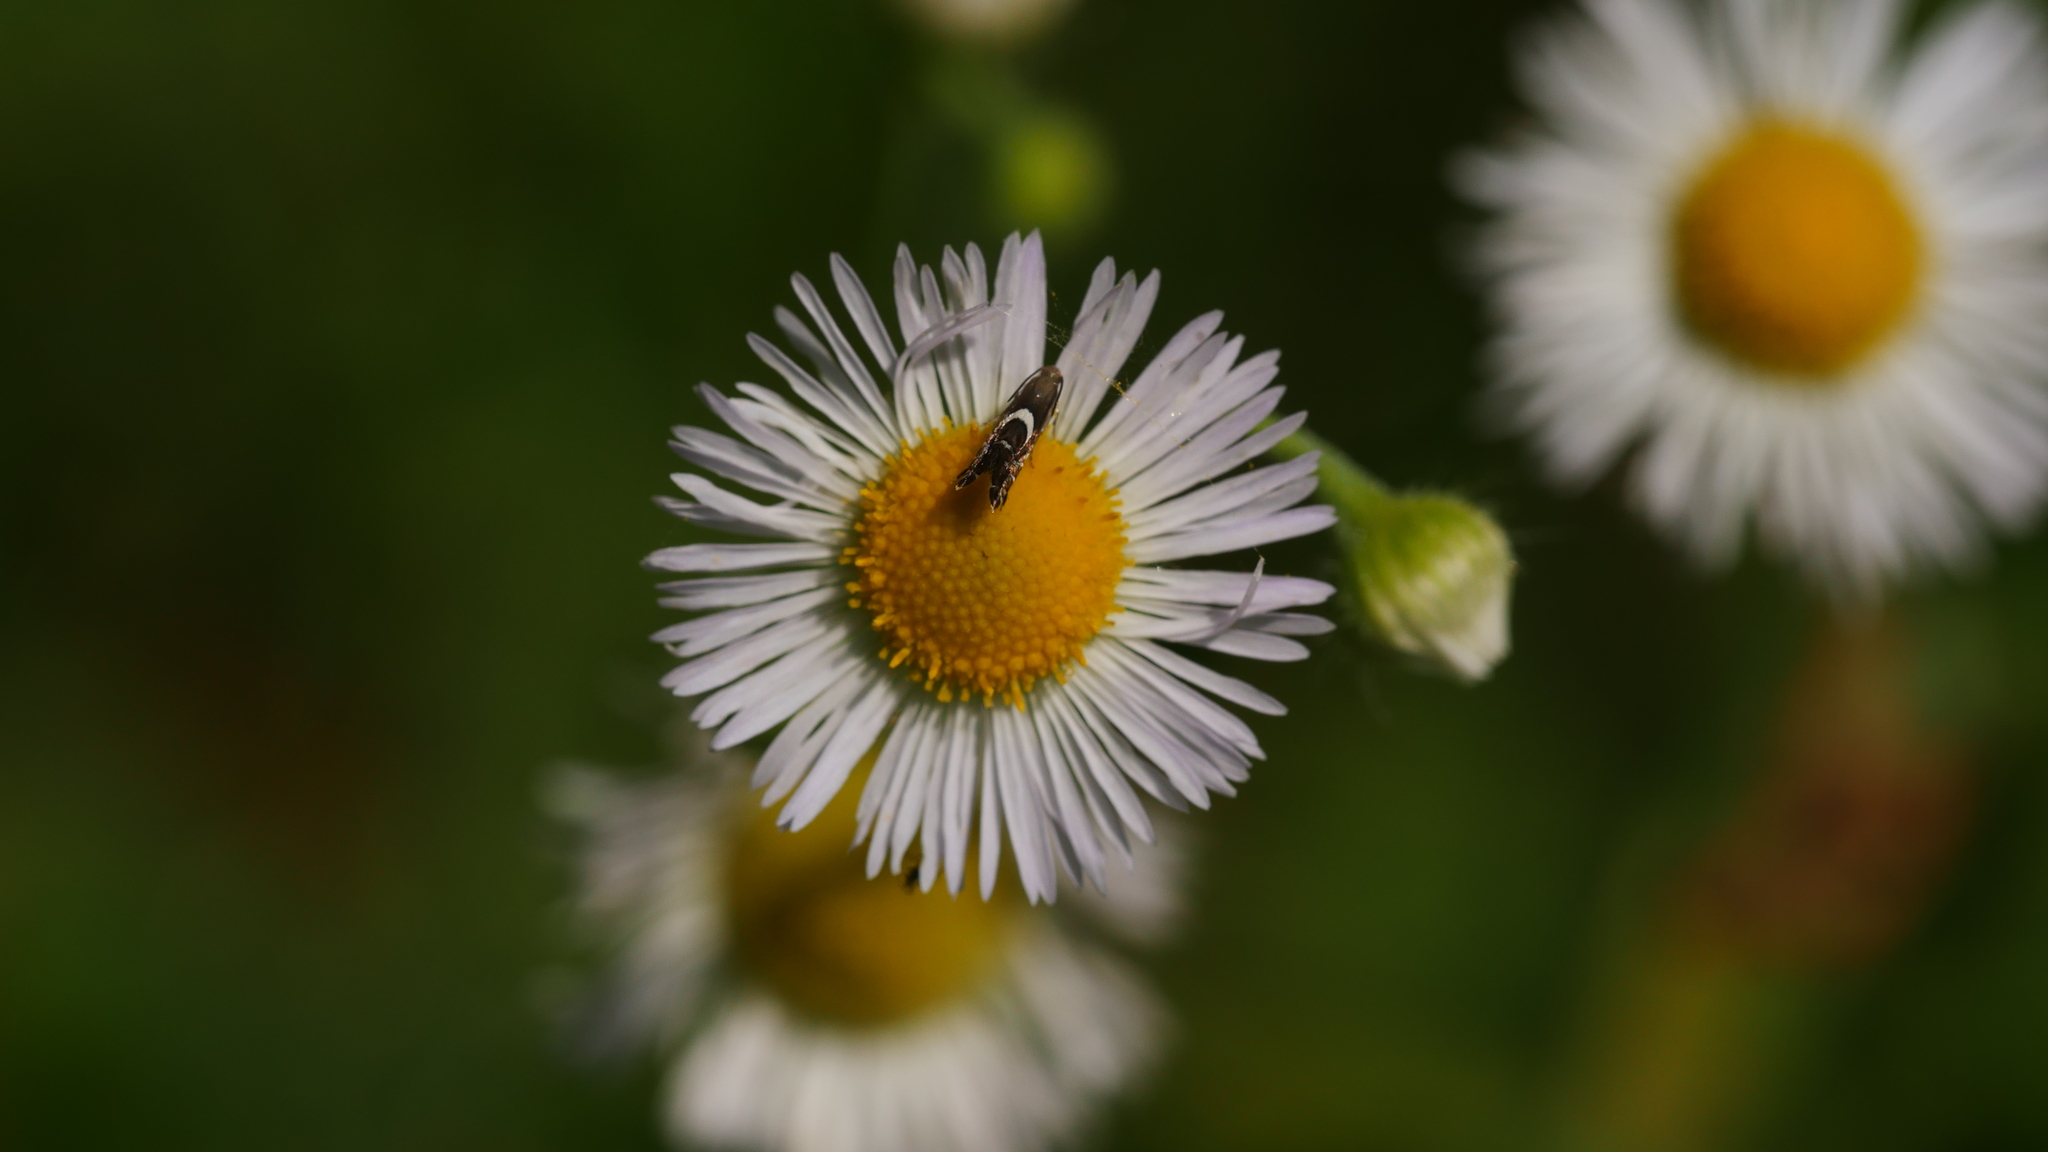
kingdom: Animalia
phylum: Arthropoda
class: Insecta
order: Lepidoptera
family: Glyphipterigidae
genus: Glyphipterix
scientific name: Glyphipterix Diploschizia impigritella
